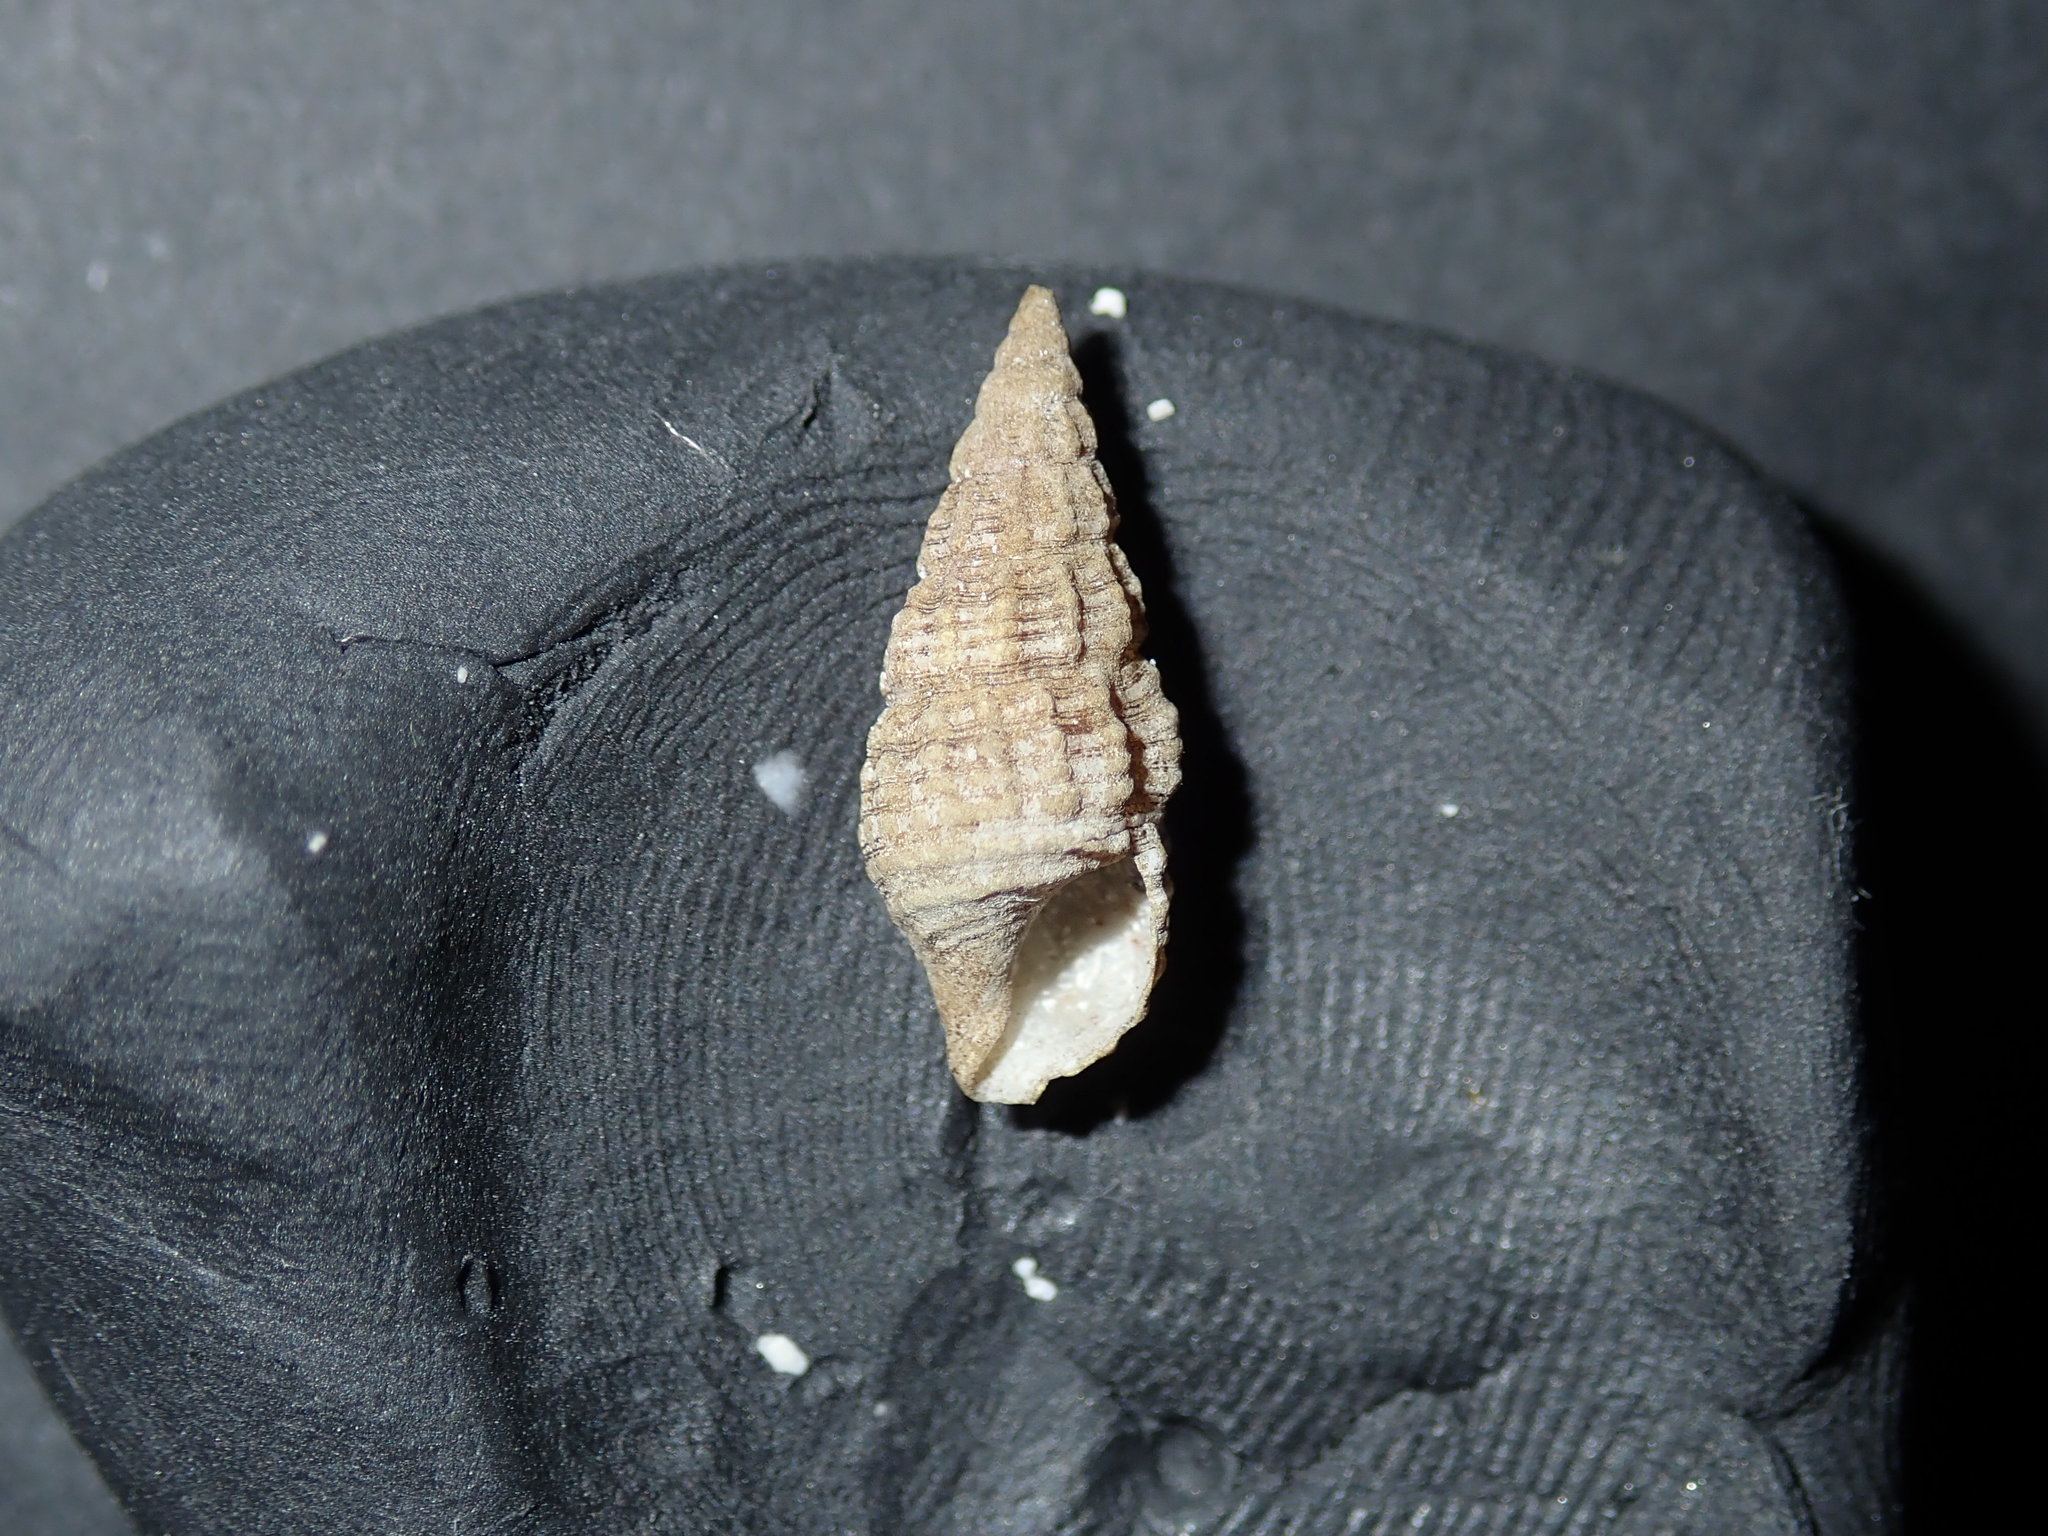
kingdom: Animalia
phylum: Mollusca
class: Gastropoda
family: Batillariidae
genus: Batillaria
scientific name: Batillaria australis
